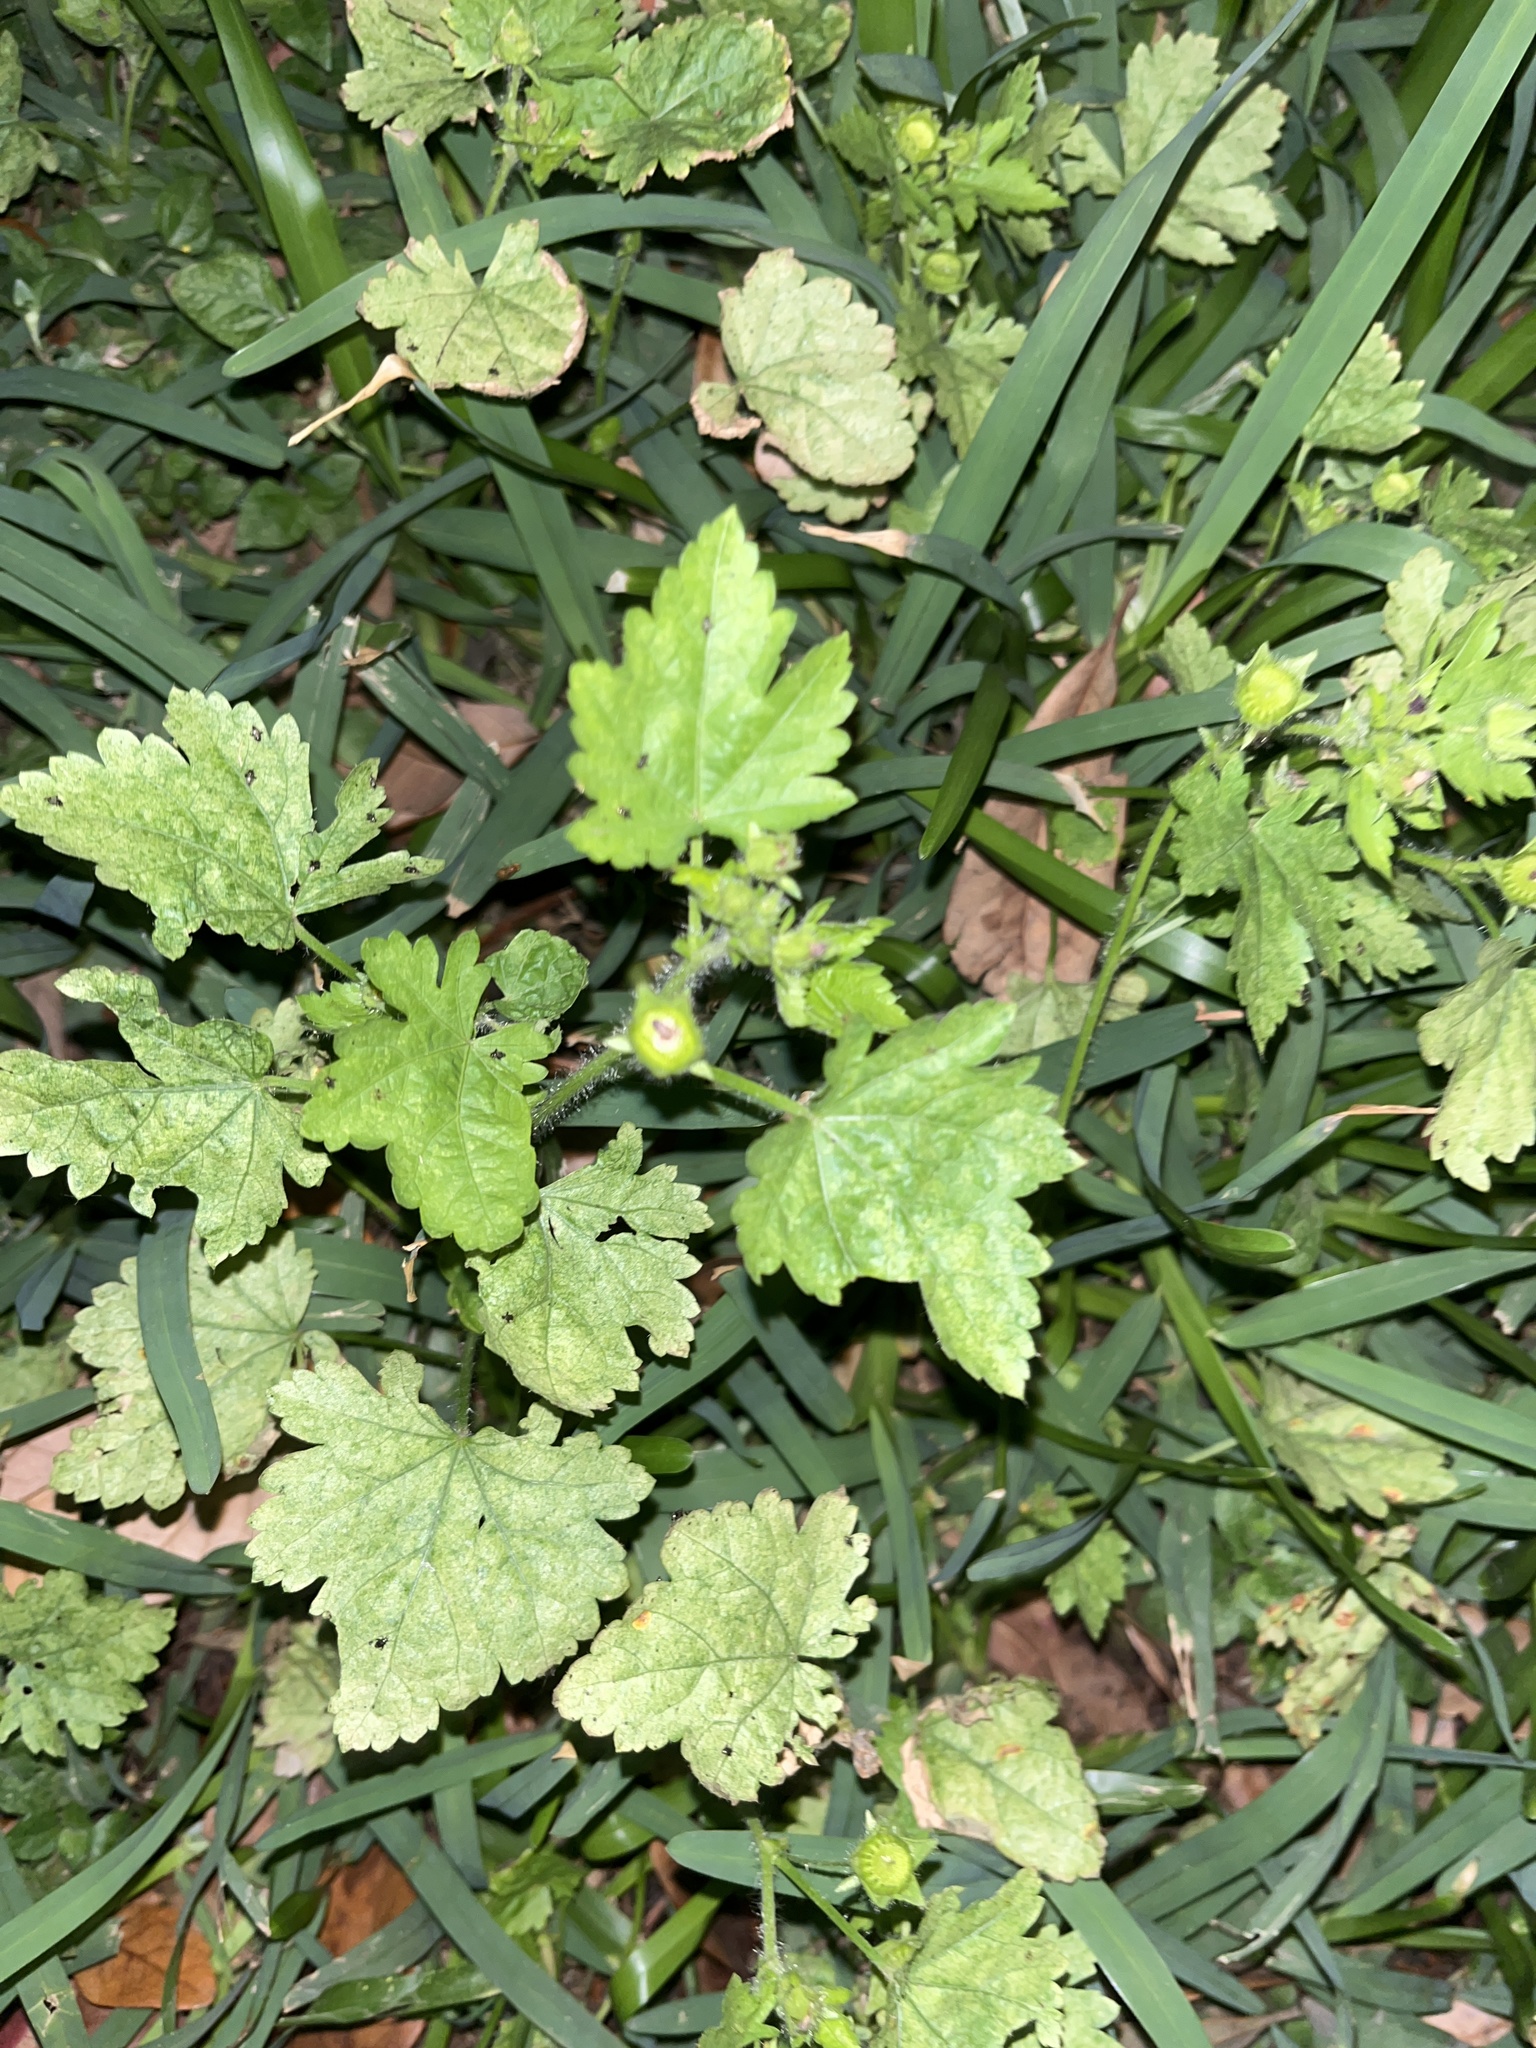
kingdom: Plantae
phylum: Tracheophyta
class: Magnoliopsida
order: Malvales
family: Malvaceae
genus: Modiola
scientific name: Modiola caroliniana
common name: Carolina bristlemallow
